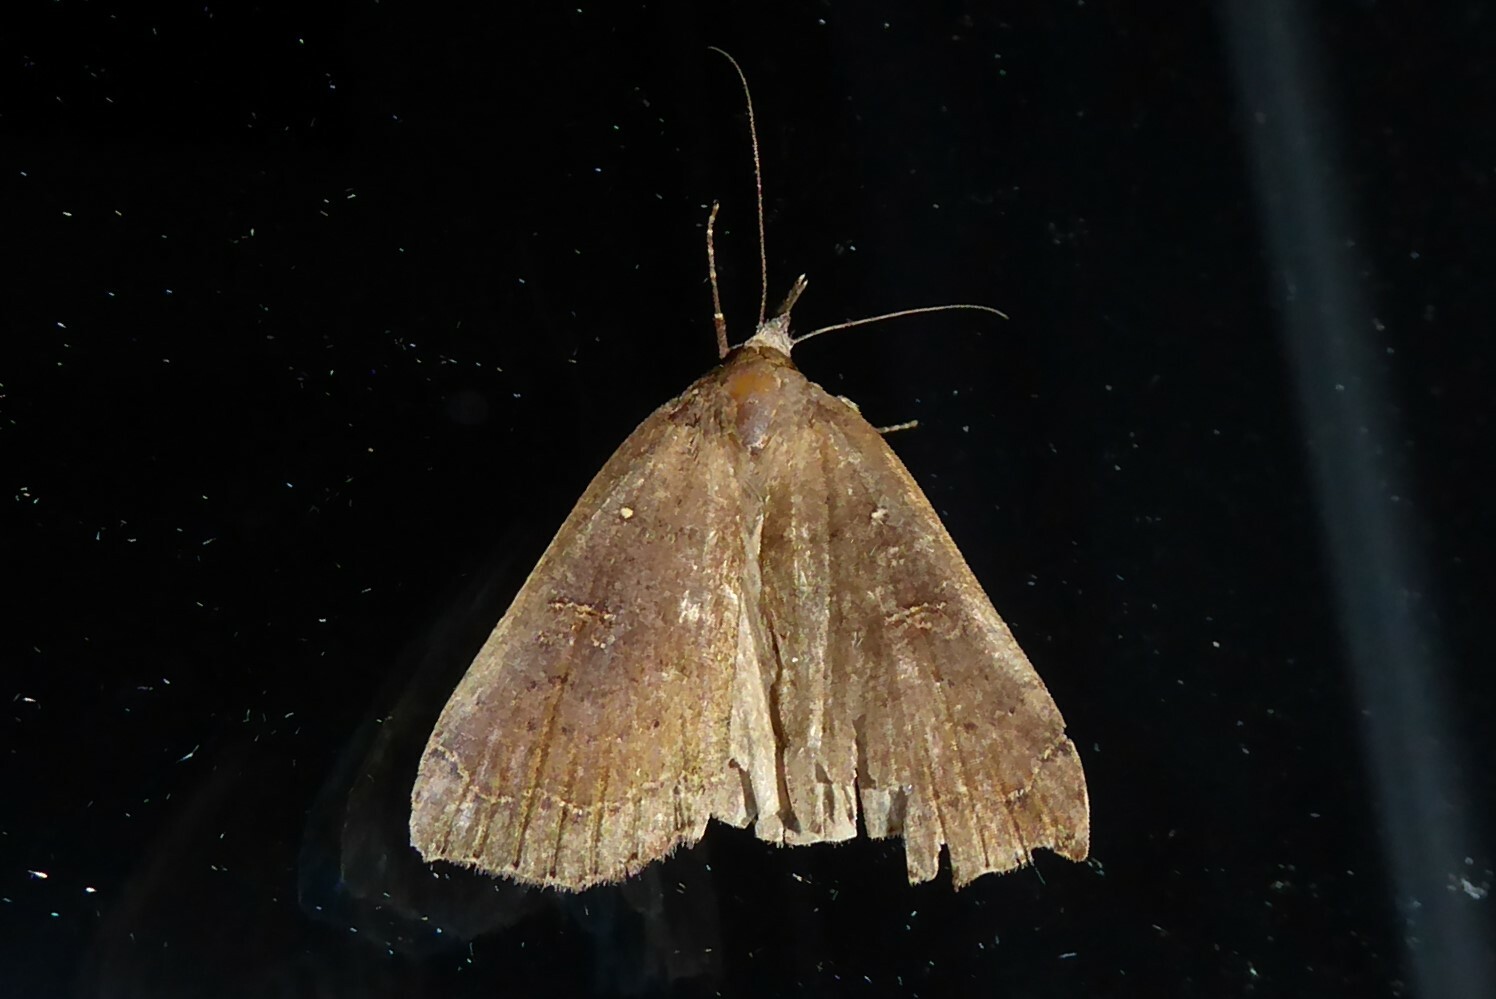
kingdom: Animalia
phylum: Arthropoda
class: Insecta
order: Lepidoptera
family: Erebidae
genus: Rhapsa
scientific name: Rhapsa scotosialis
